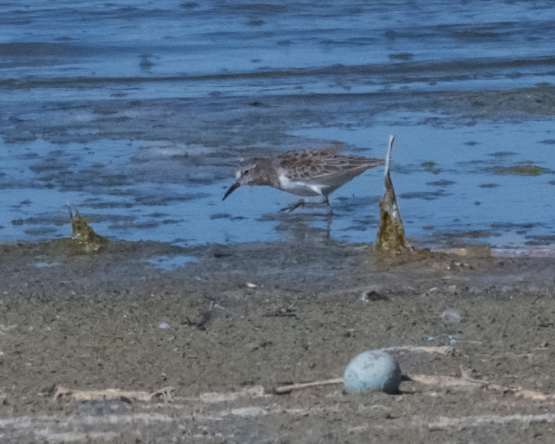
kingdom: Animalia
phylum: Chordata
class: Aves
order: Charadriiformes
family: Scolopacidae
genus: Calidris
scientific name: Calidris minutilla
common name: Least sandpiper
